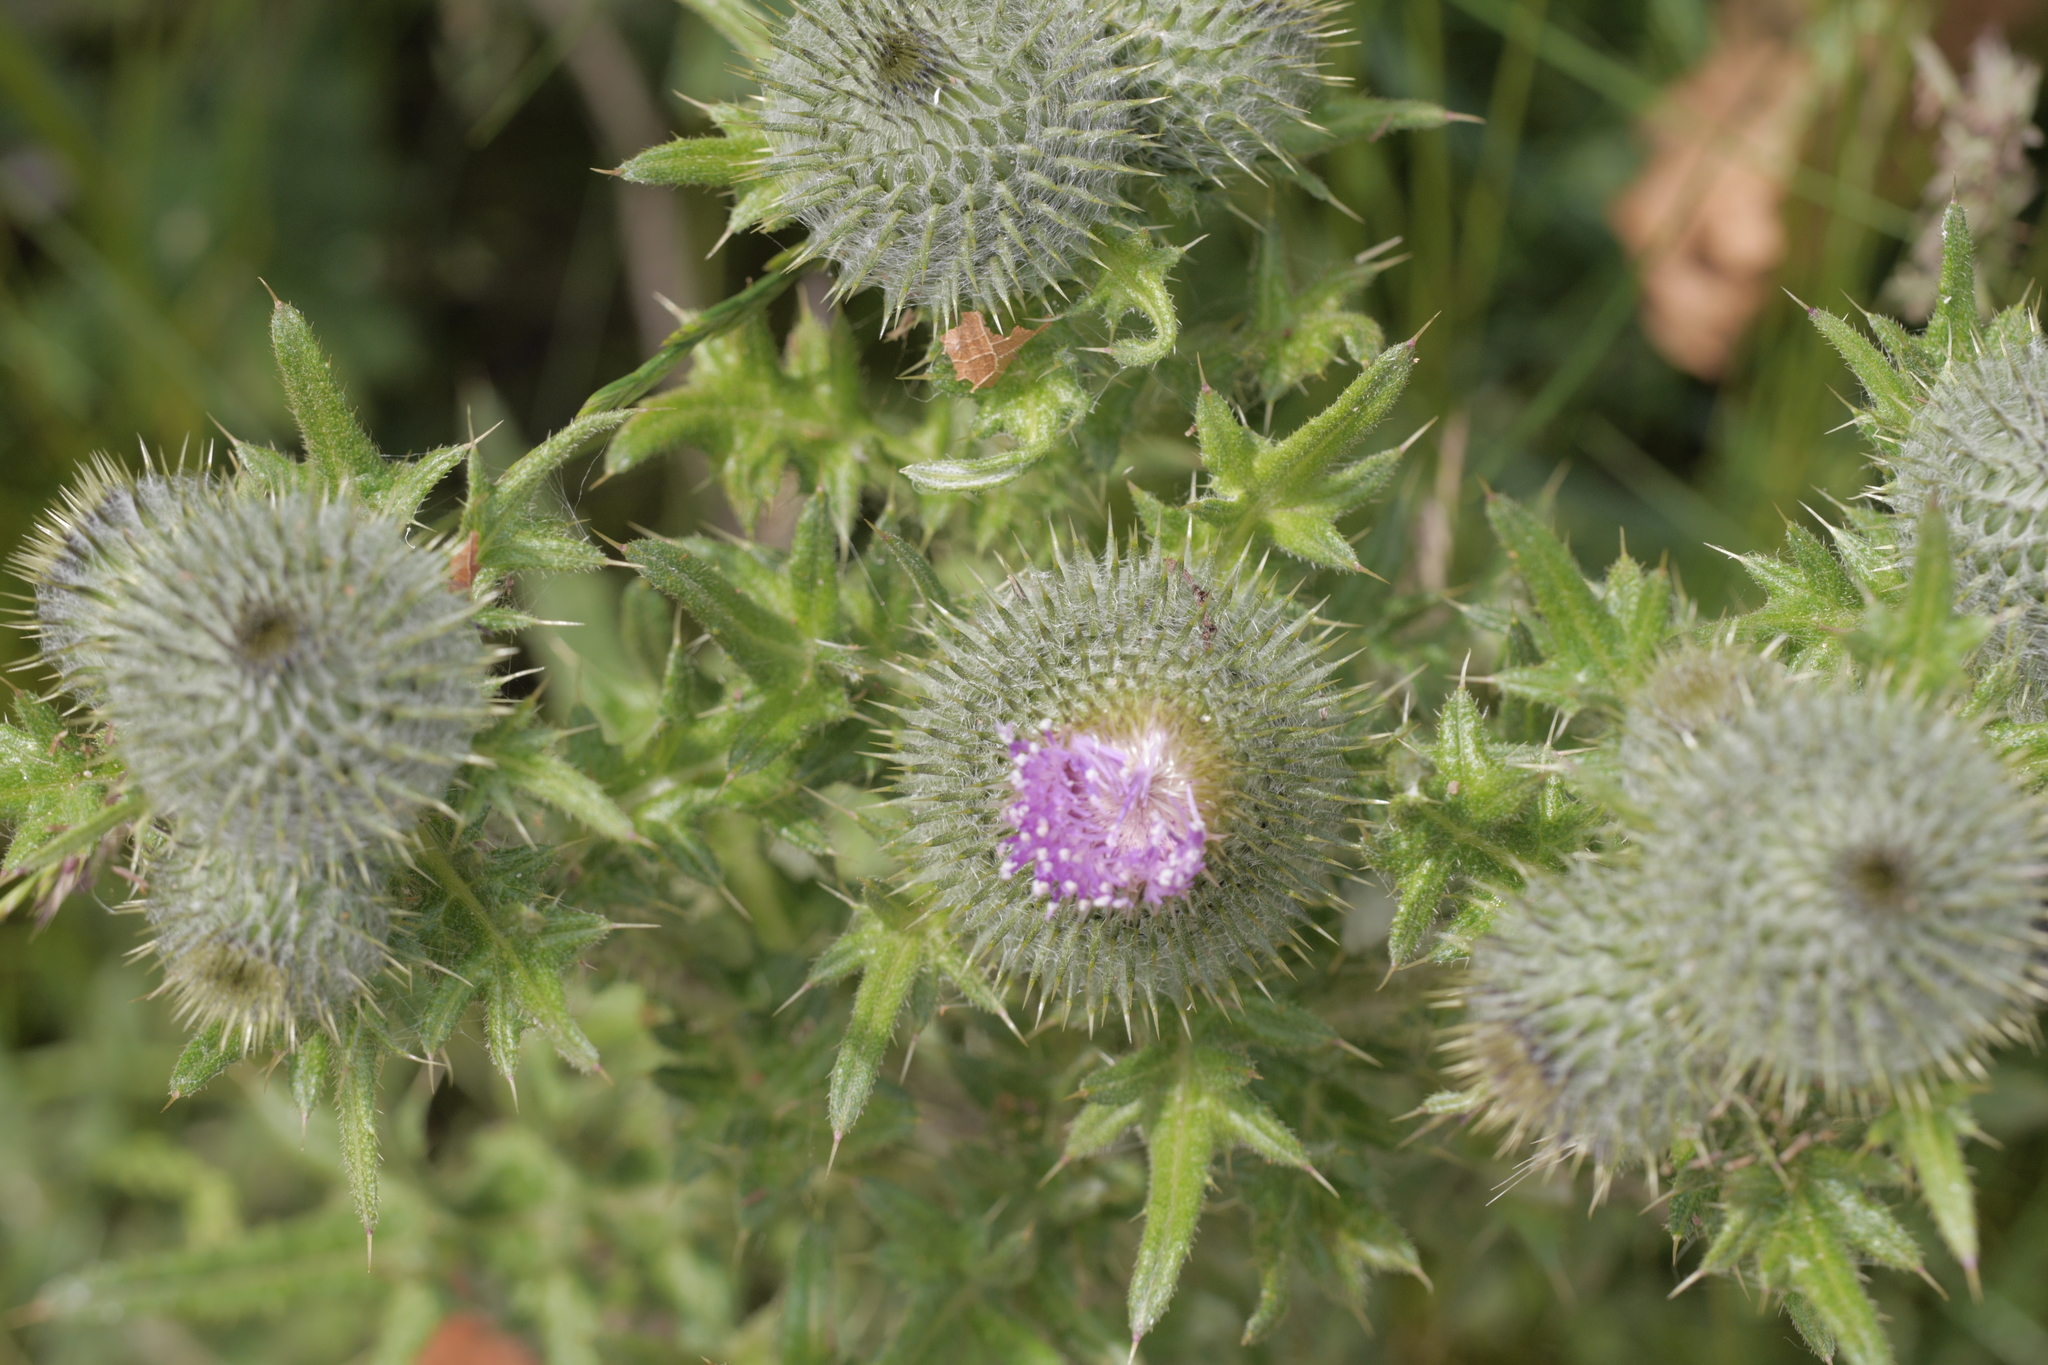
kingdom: Plantae
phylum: Tracheophyta
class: Magnoliopsida
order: Asterales
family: Asteraceae
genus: Cirsium
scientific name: Cirsium vulgare
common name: Bull thistle
